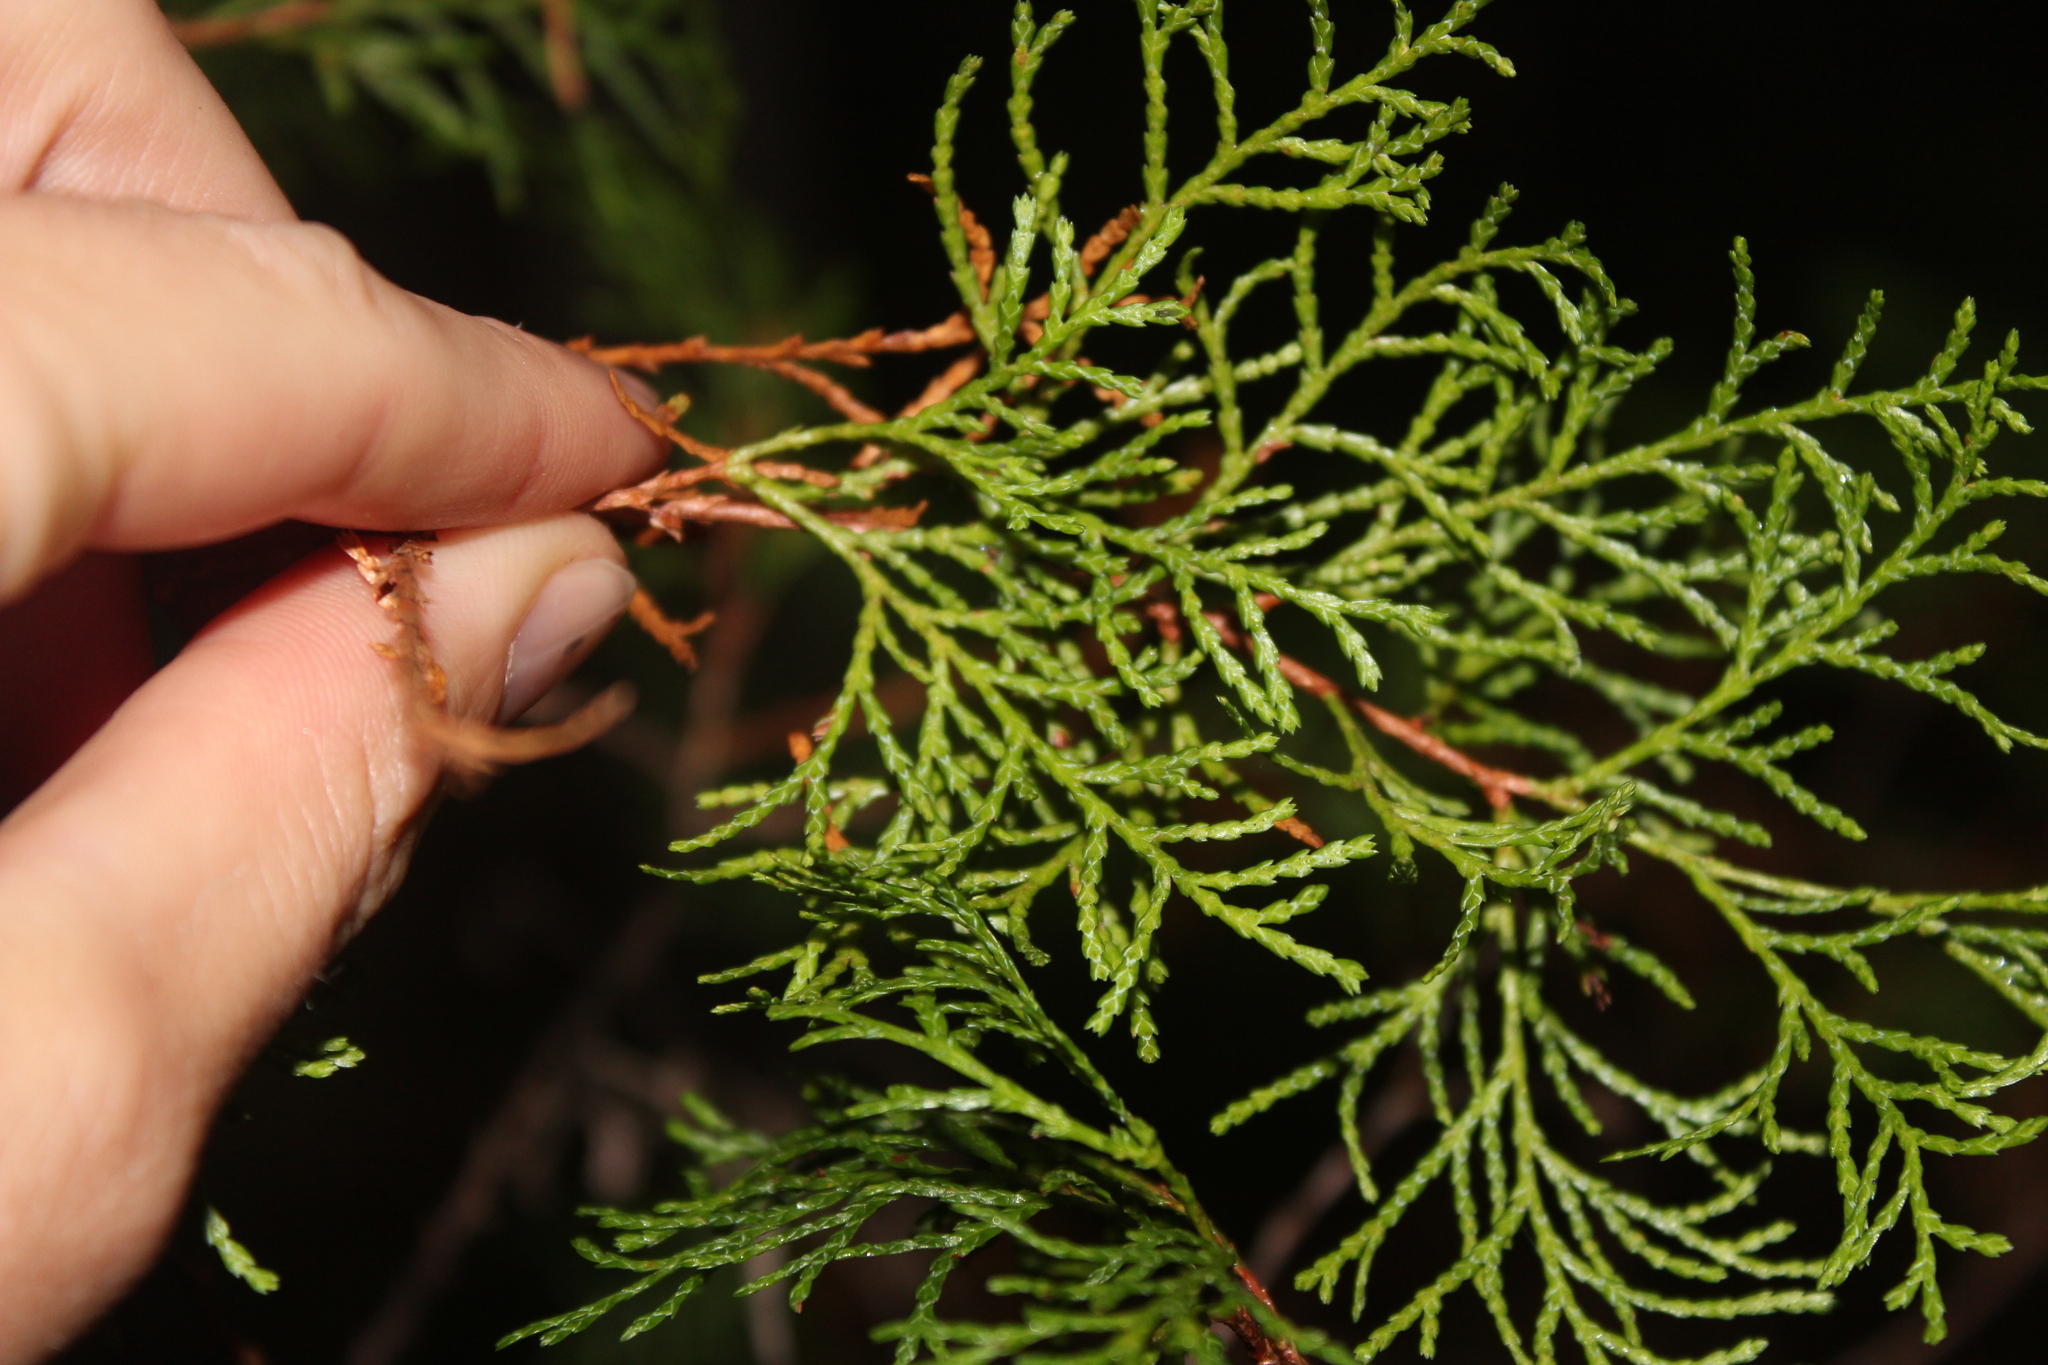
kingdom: Plantae
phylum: Tracheophyta
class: Pinopsida
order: Pinales
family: Cupressaceae
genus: Chamaecyparis
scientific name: Chamaecyparis thyoides
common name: Atlantic white cedar
